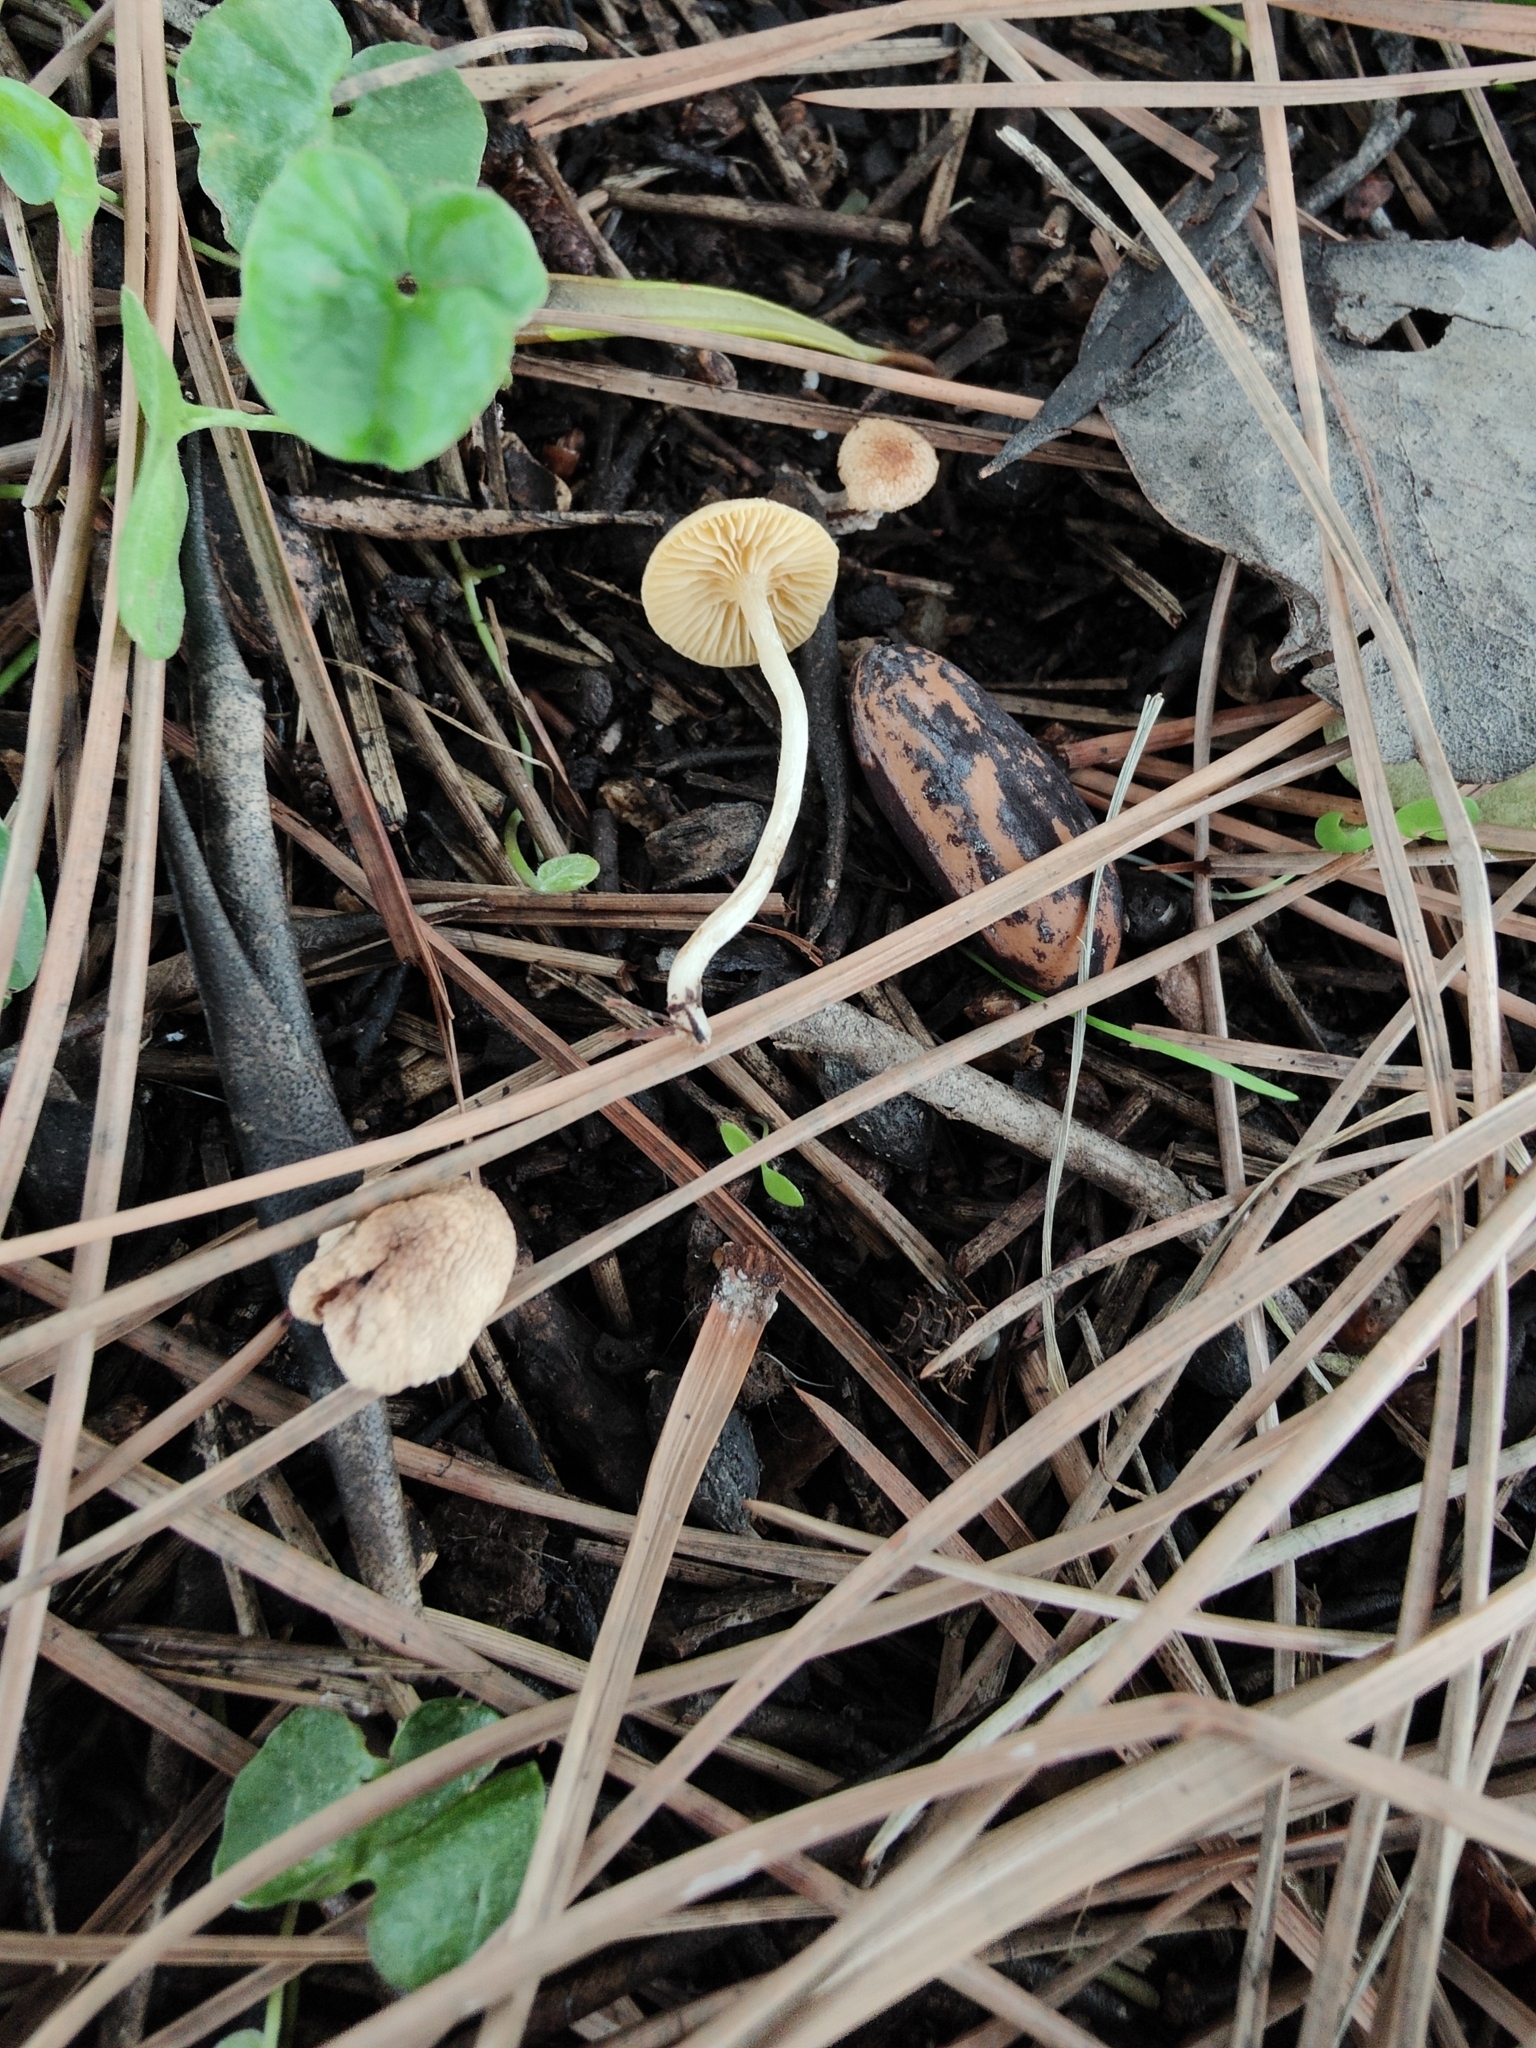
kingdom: Fungi
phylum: Basidiomycota
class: Agaricomycetes
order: Agaricales
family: Tubariaceae
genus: Tubaria
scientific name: Tubaria dispersa
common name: Hawthorn twiglet
